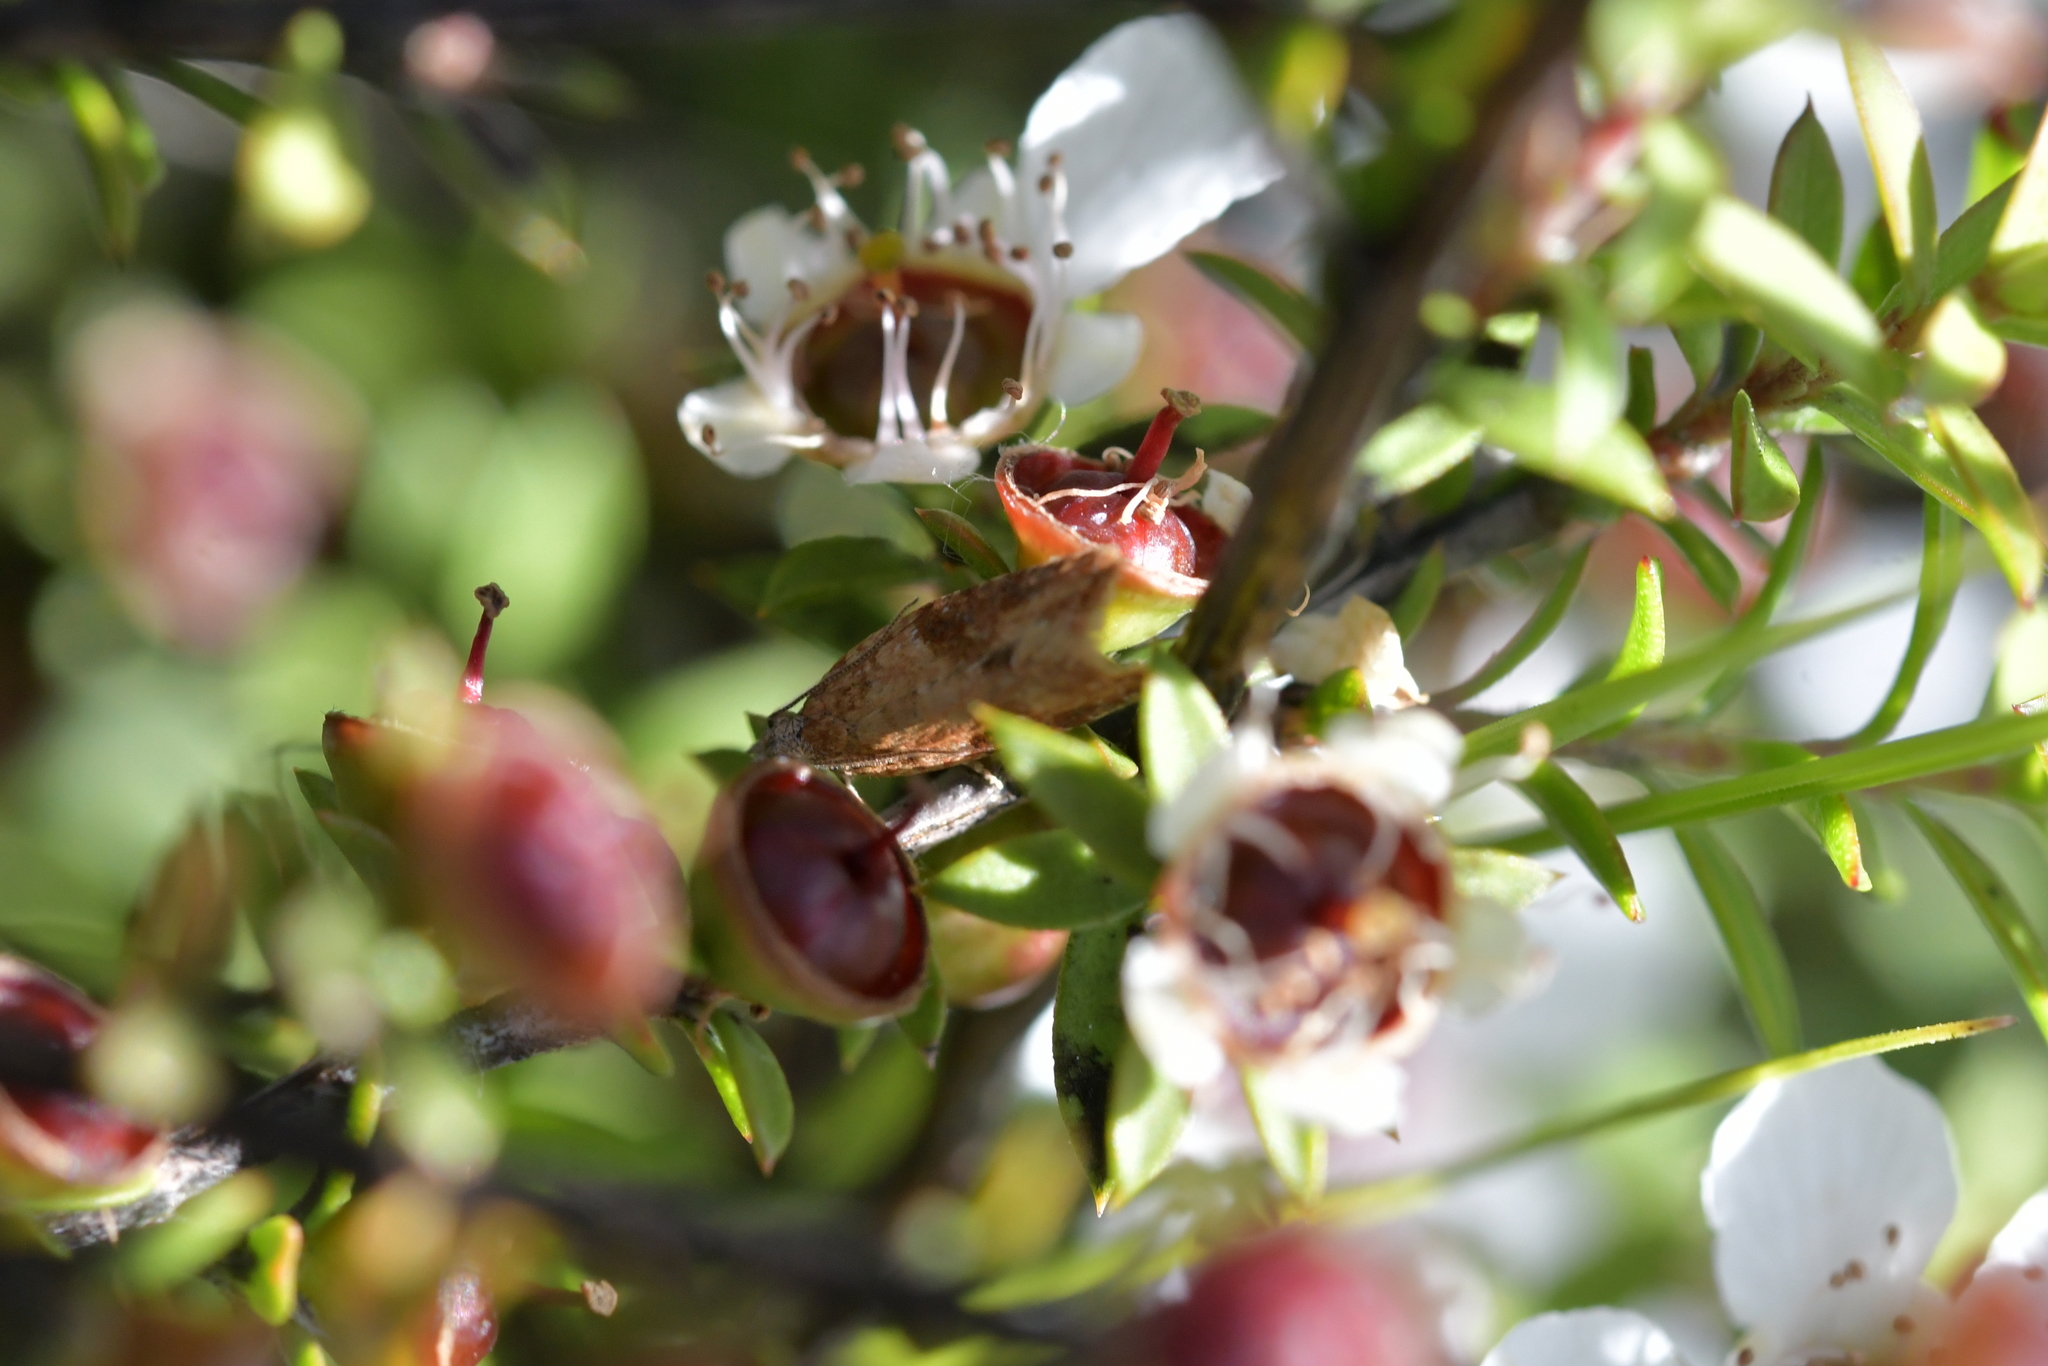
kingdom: Animalia
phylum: Arthropoda
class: Insecta
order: Lepidoptera
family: Tortricidae
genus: Capua
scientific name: Capua semiferana
